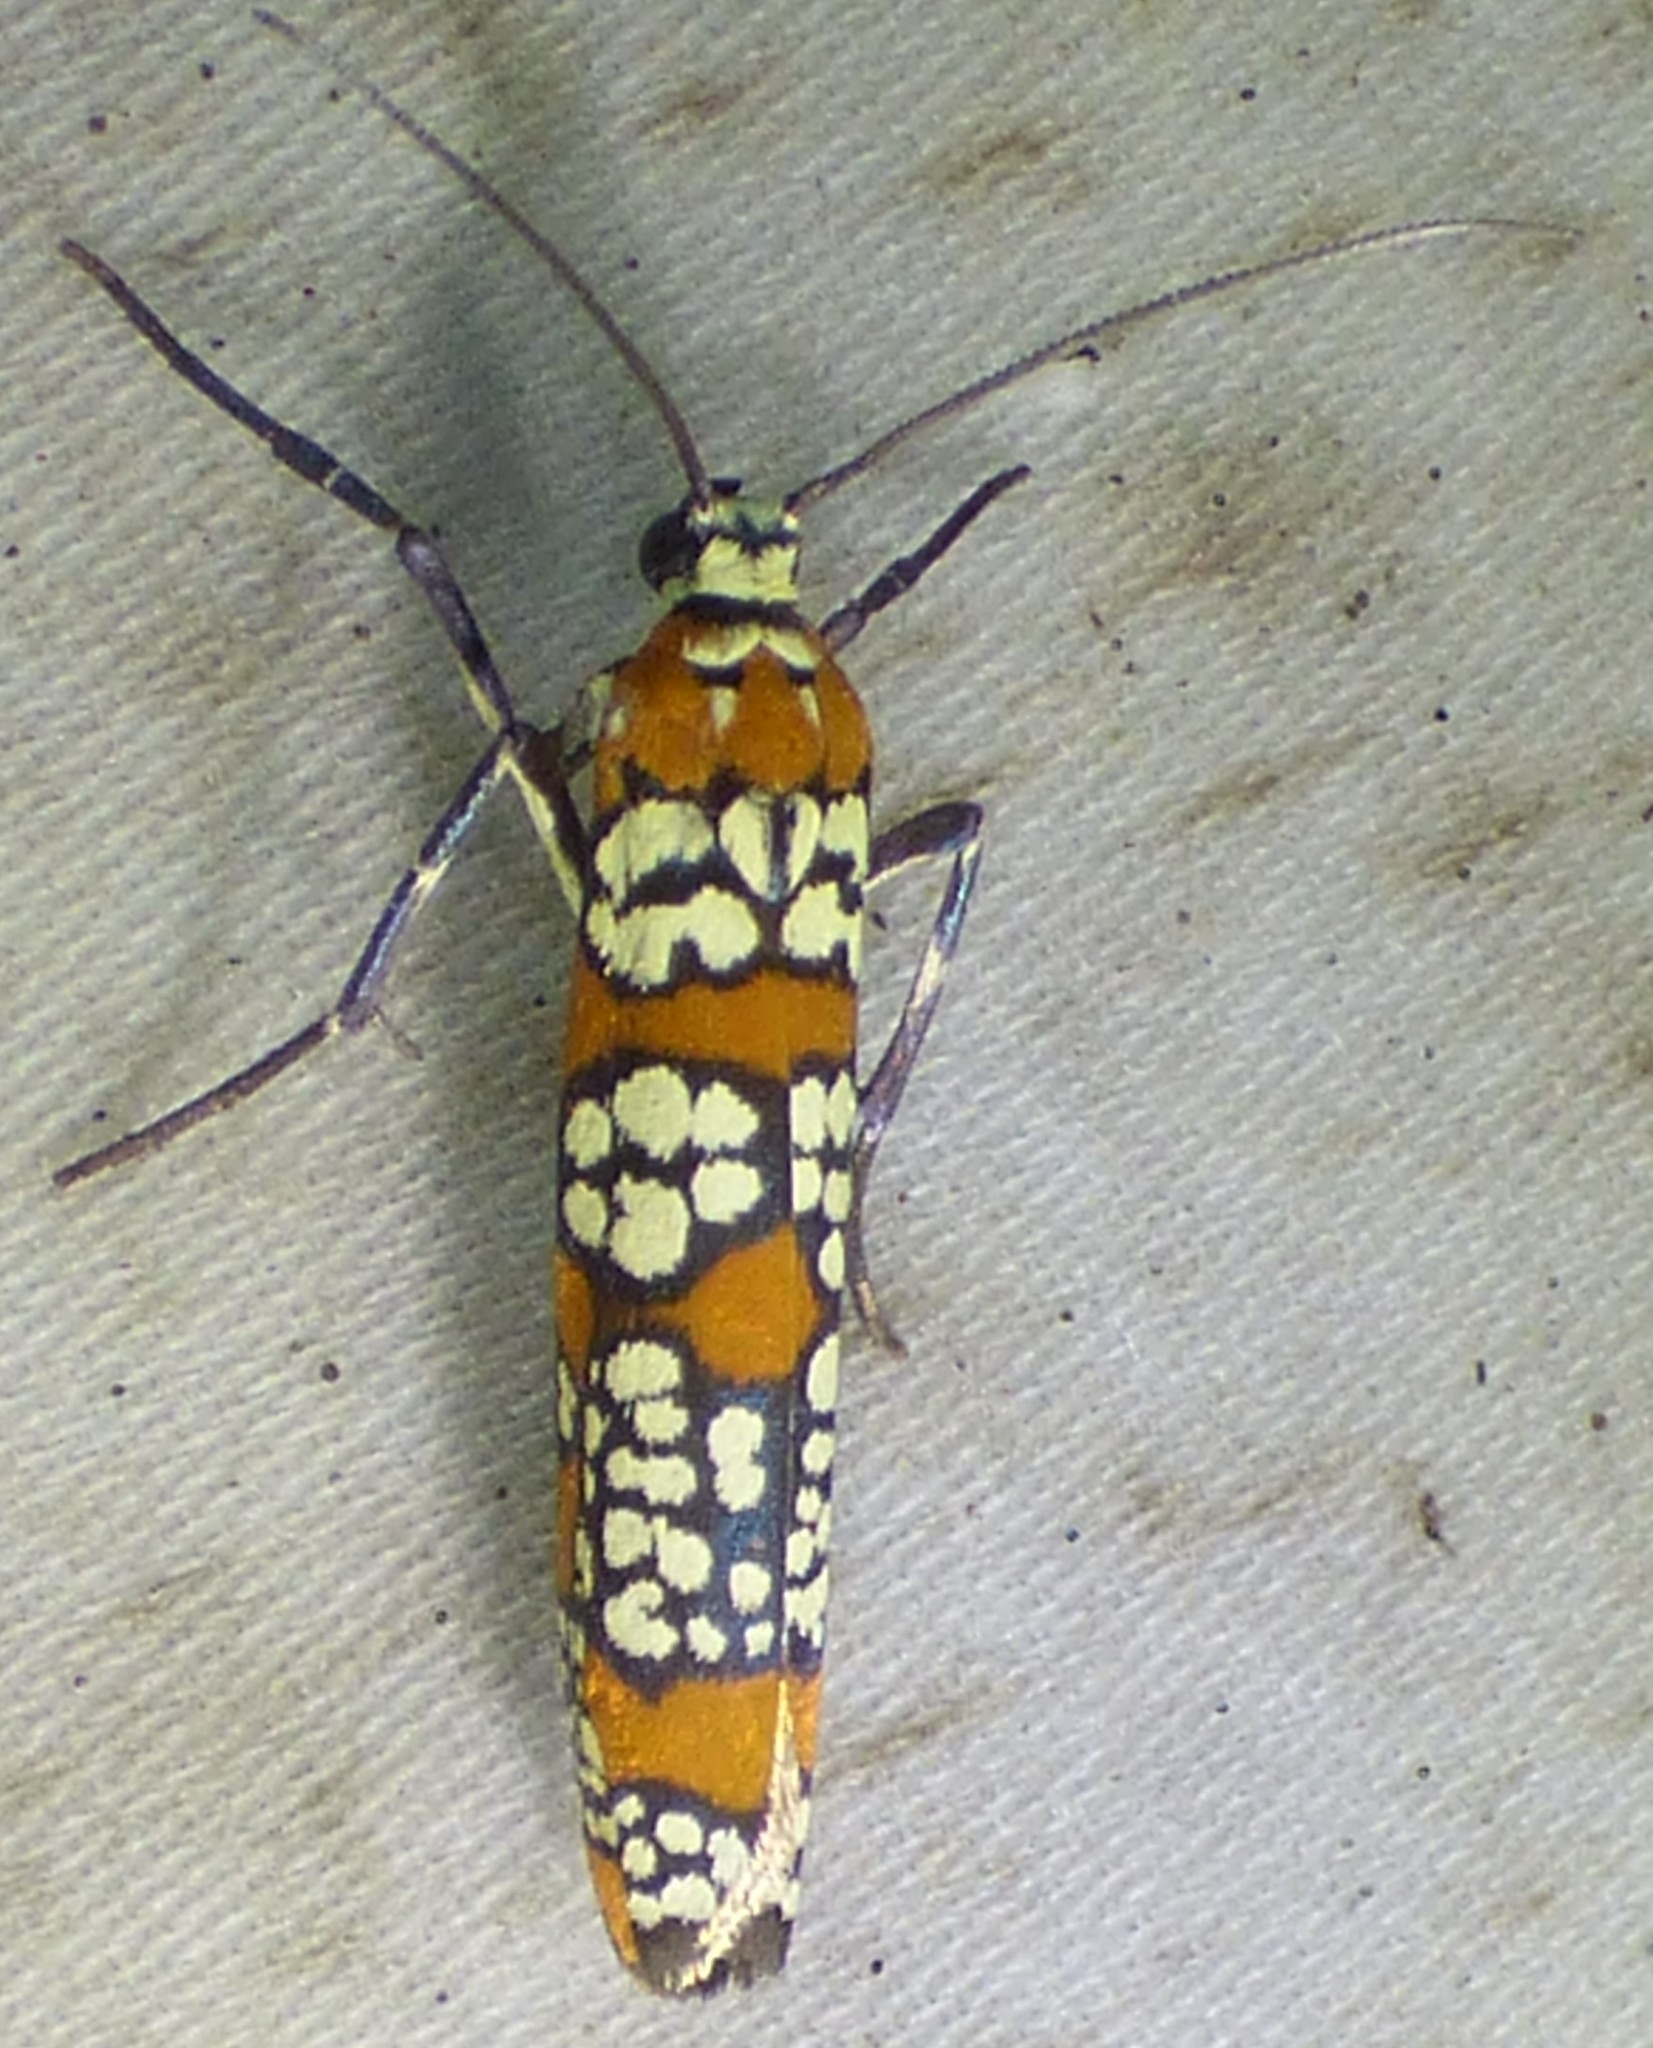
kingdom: Animalia
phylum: Arthropoda
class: Insecta
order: Lepidoptera
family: Attevidae
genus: Atteva
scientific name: Atteva punctella
